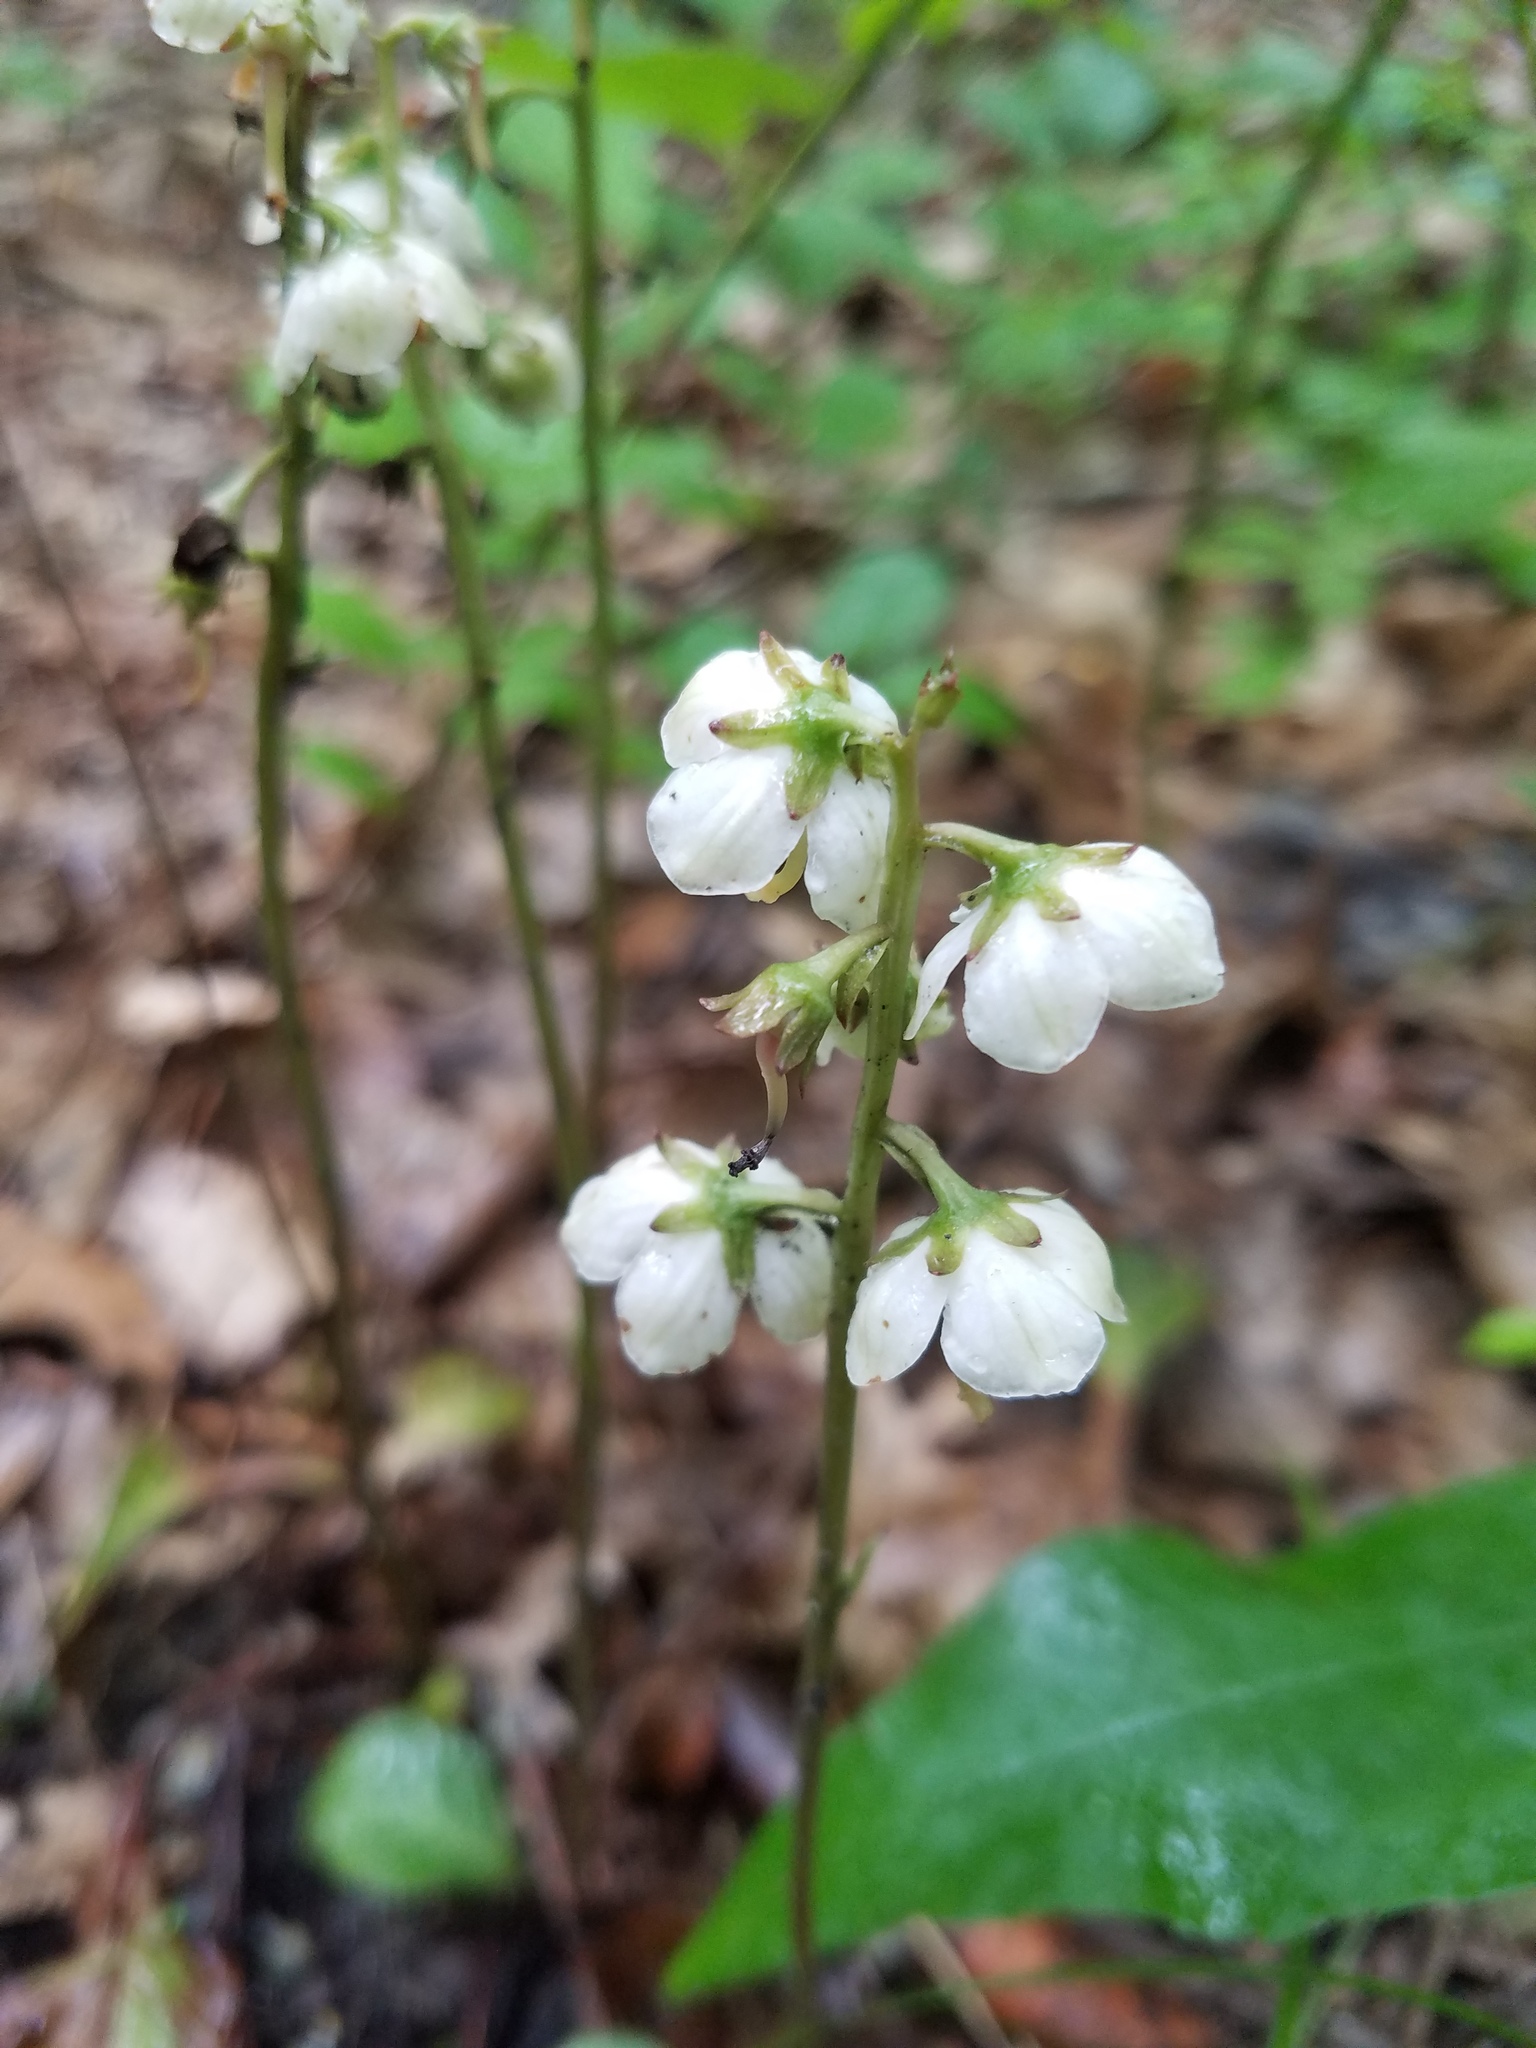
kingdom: Plantae
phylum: Tracheophyta
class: Magnoliopsida
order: Ericales
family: Ericaceae
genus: Pyrola
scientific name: Pyrola americana
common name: American wintergreen
